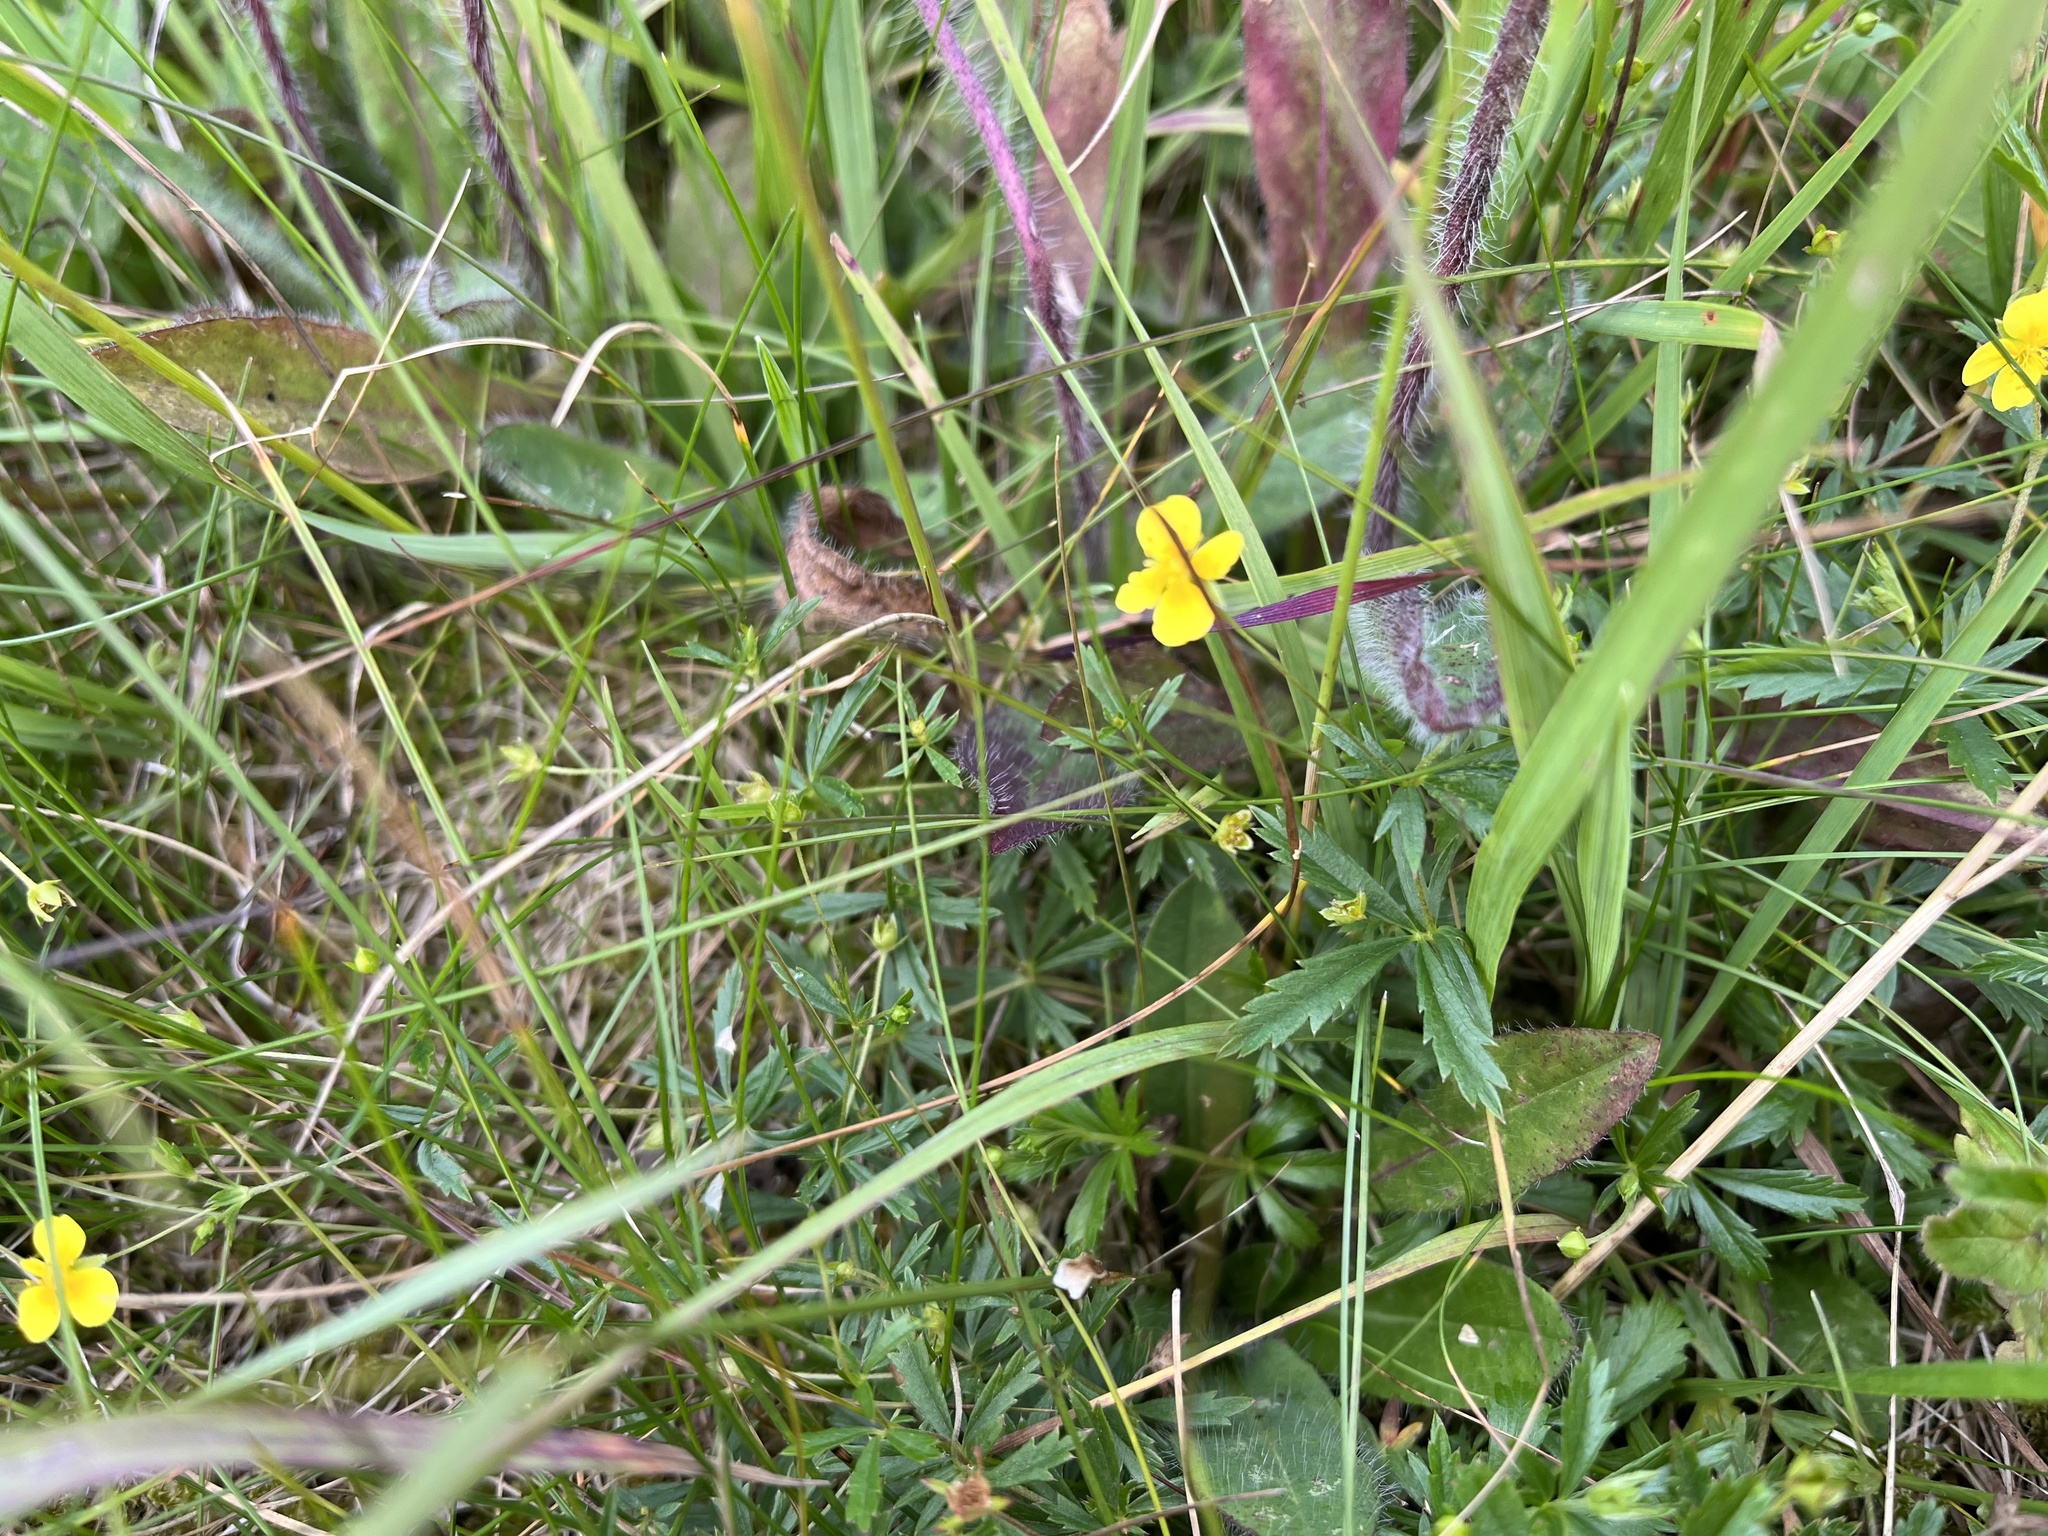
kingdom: Plantae
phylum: Tracheophyta
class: Magnoliopsida
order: Rosales
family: Rosaceae
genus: Potentilla
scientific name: Potentilla erecta
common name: Tormentil
